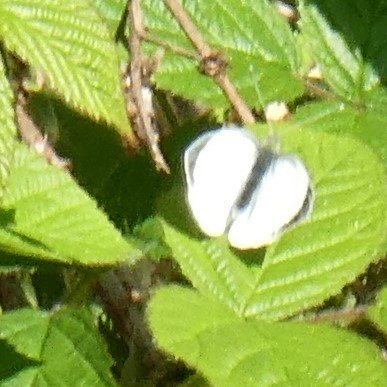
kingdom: Animalia
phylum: Arthropoda
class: Insecta
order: Lepidoptera
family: Pieridae
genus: Pieris
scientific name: Pieris brassicae
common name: Large white
